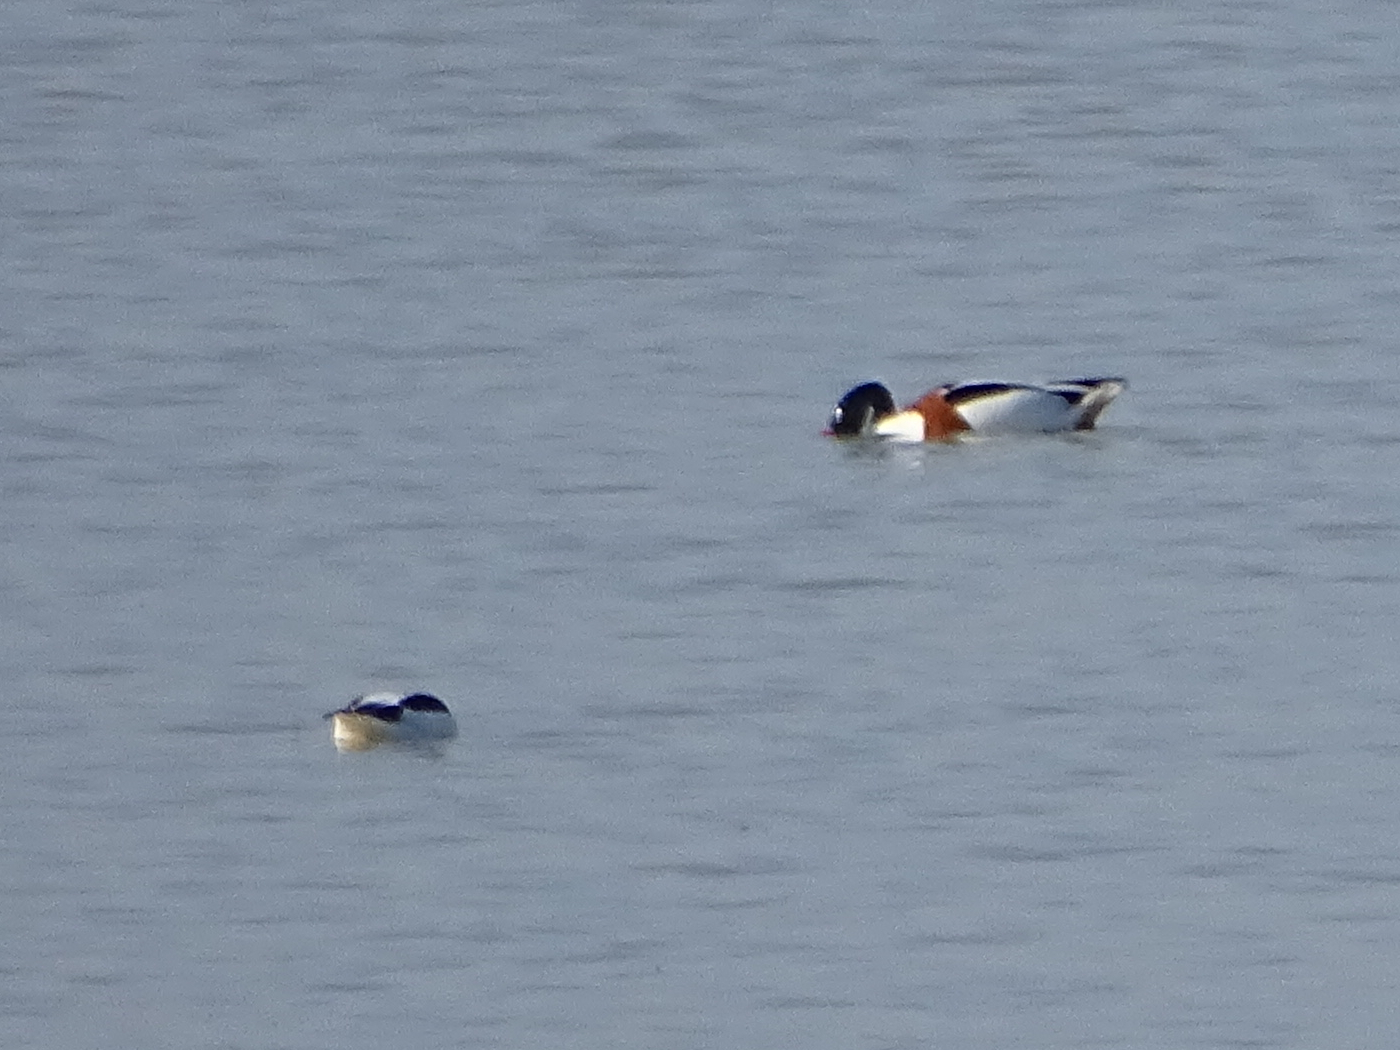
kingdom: Animalia
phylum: Chordata
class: Aves
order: Anseriformes
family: Anatidae
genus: Tadorna
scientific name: Tadorna tadorna
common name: Common shelduck
